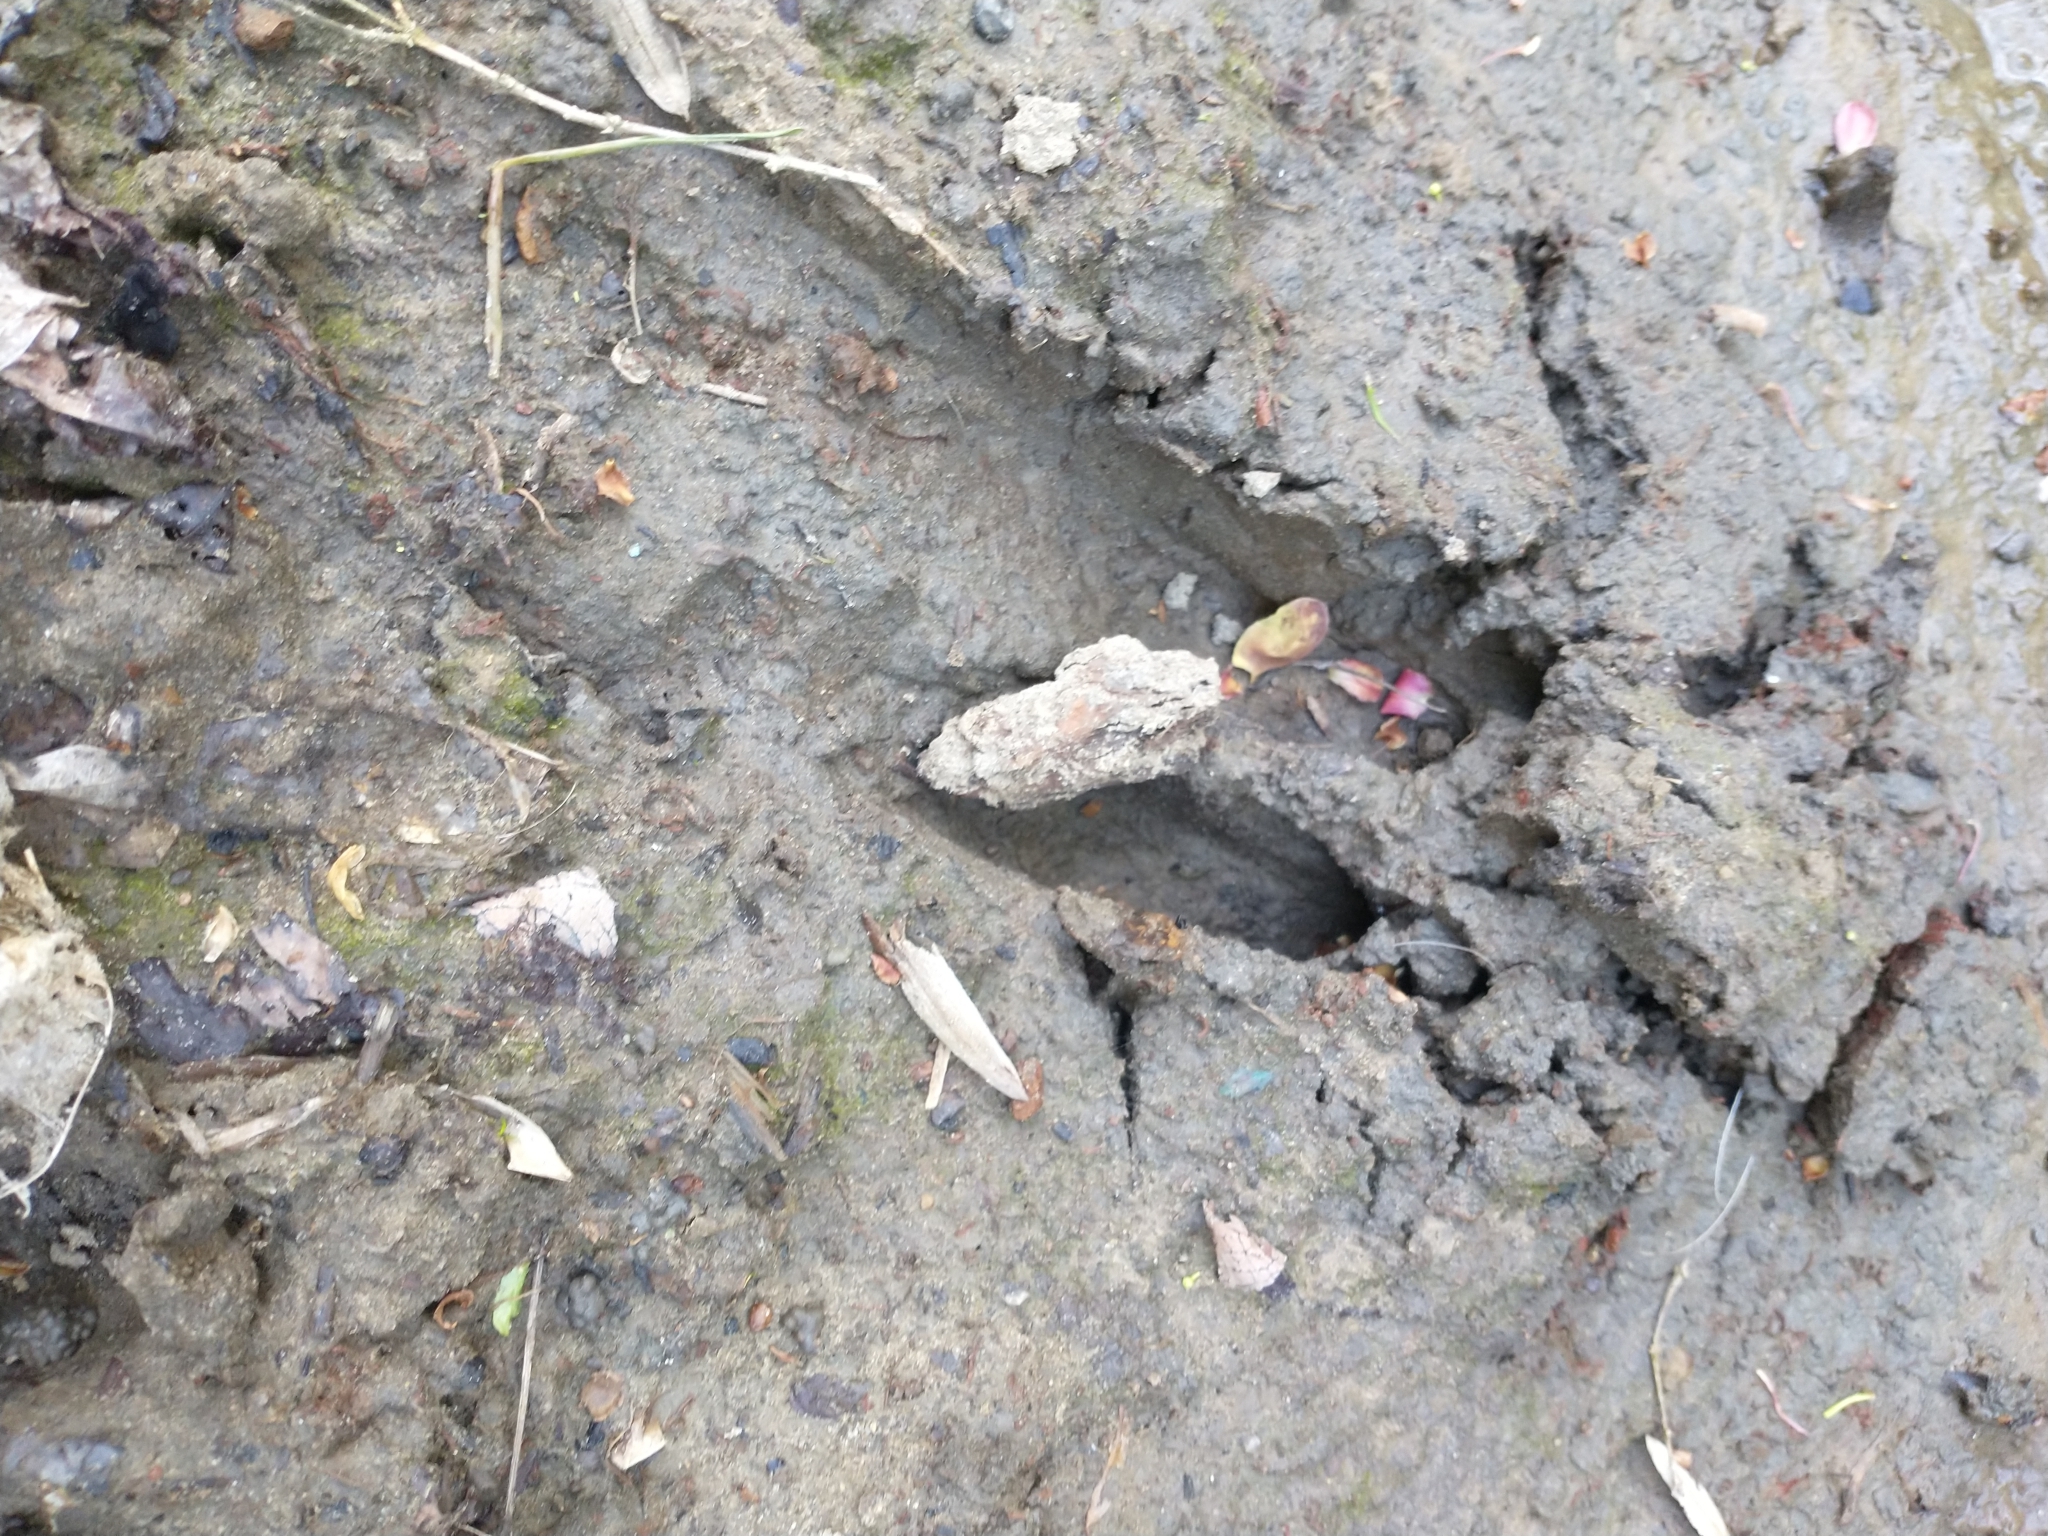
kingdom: Animalia
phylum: Chordata
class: Mammalia
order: Artiodactyla
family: Cervidae
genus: Odocoileus
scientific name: Odocoileus virginianus
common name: White-tailed deer
